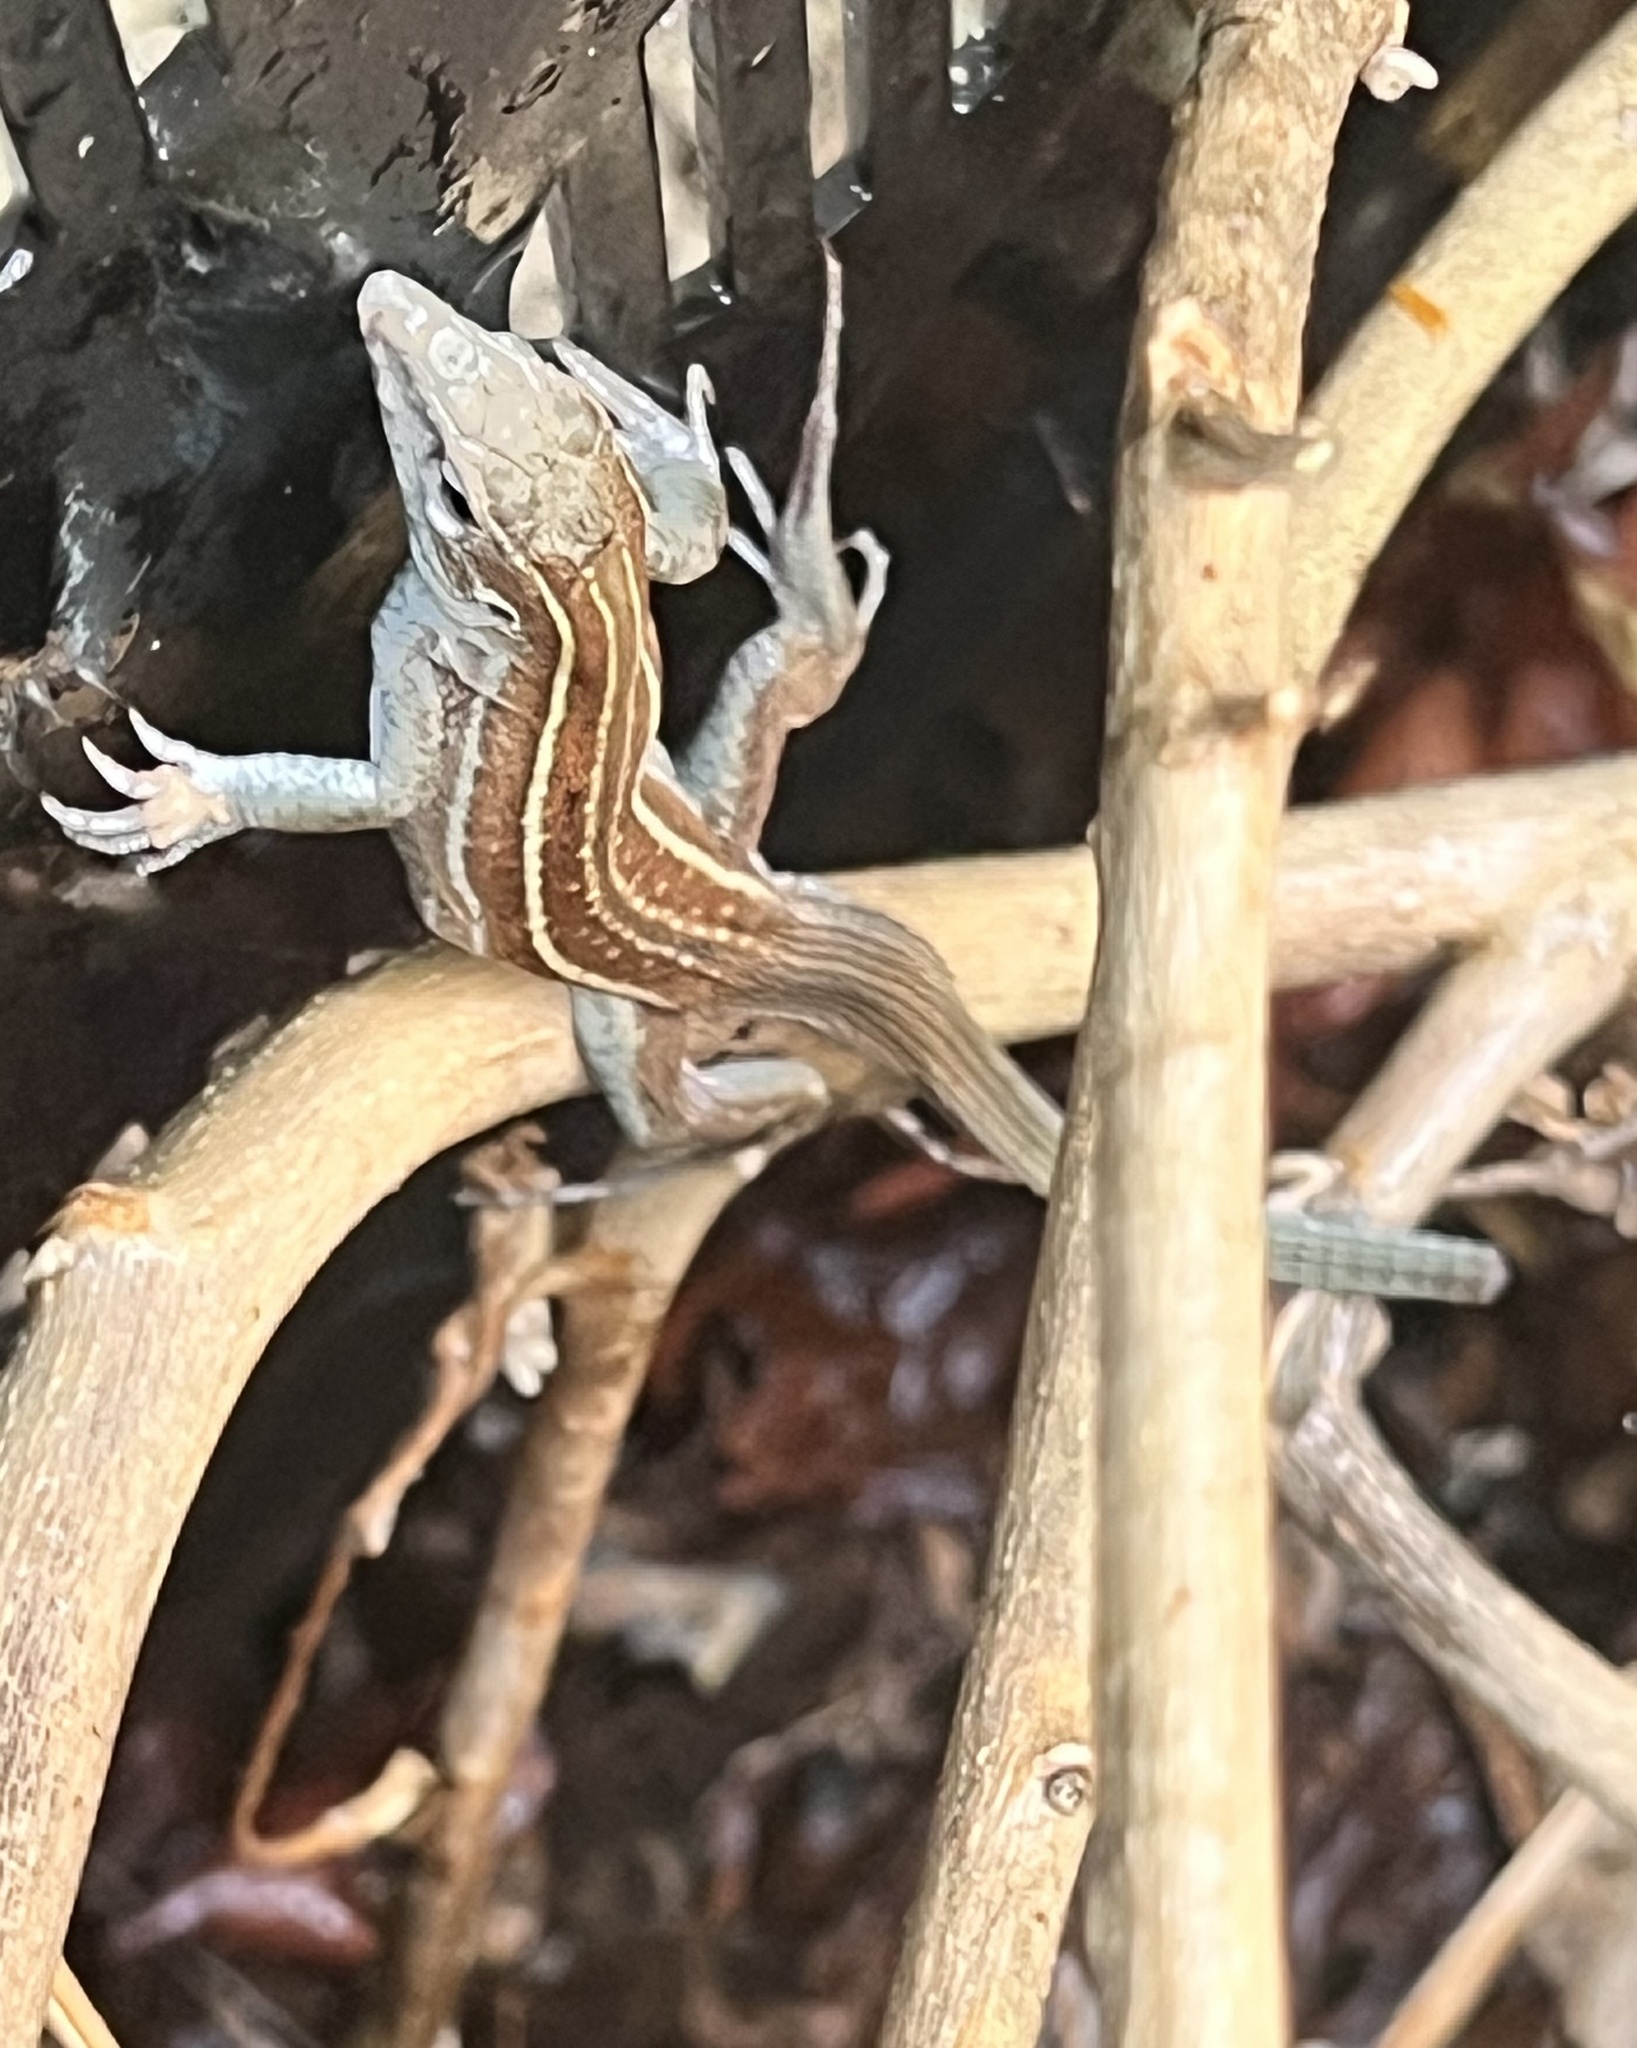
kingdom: Animalia
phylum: Chordata
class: Squamata
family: Teiidae
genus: Aspidoscelis
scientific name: Aspidoscelis sonorae
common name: Sonoran spotted whiptail
